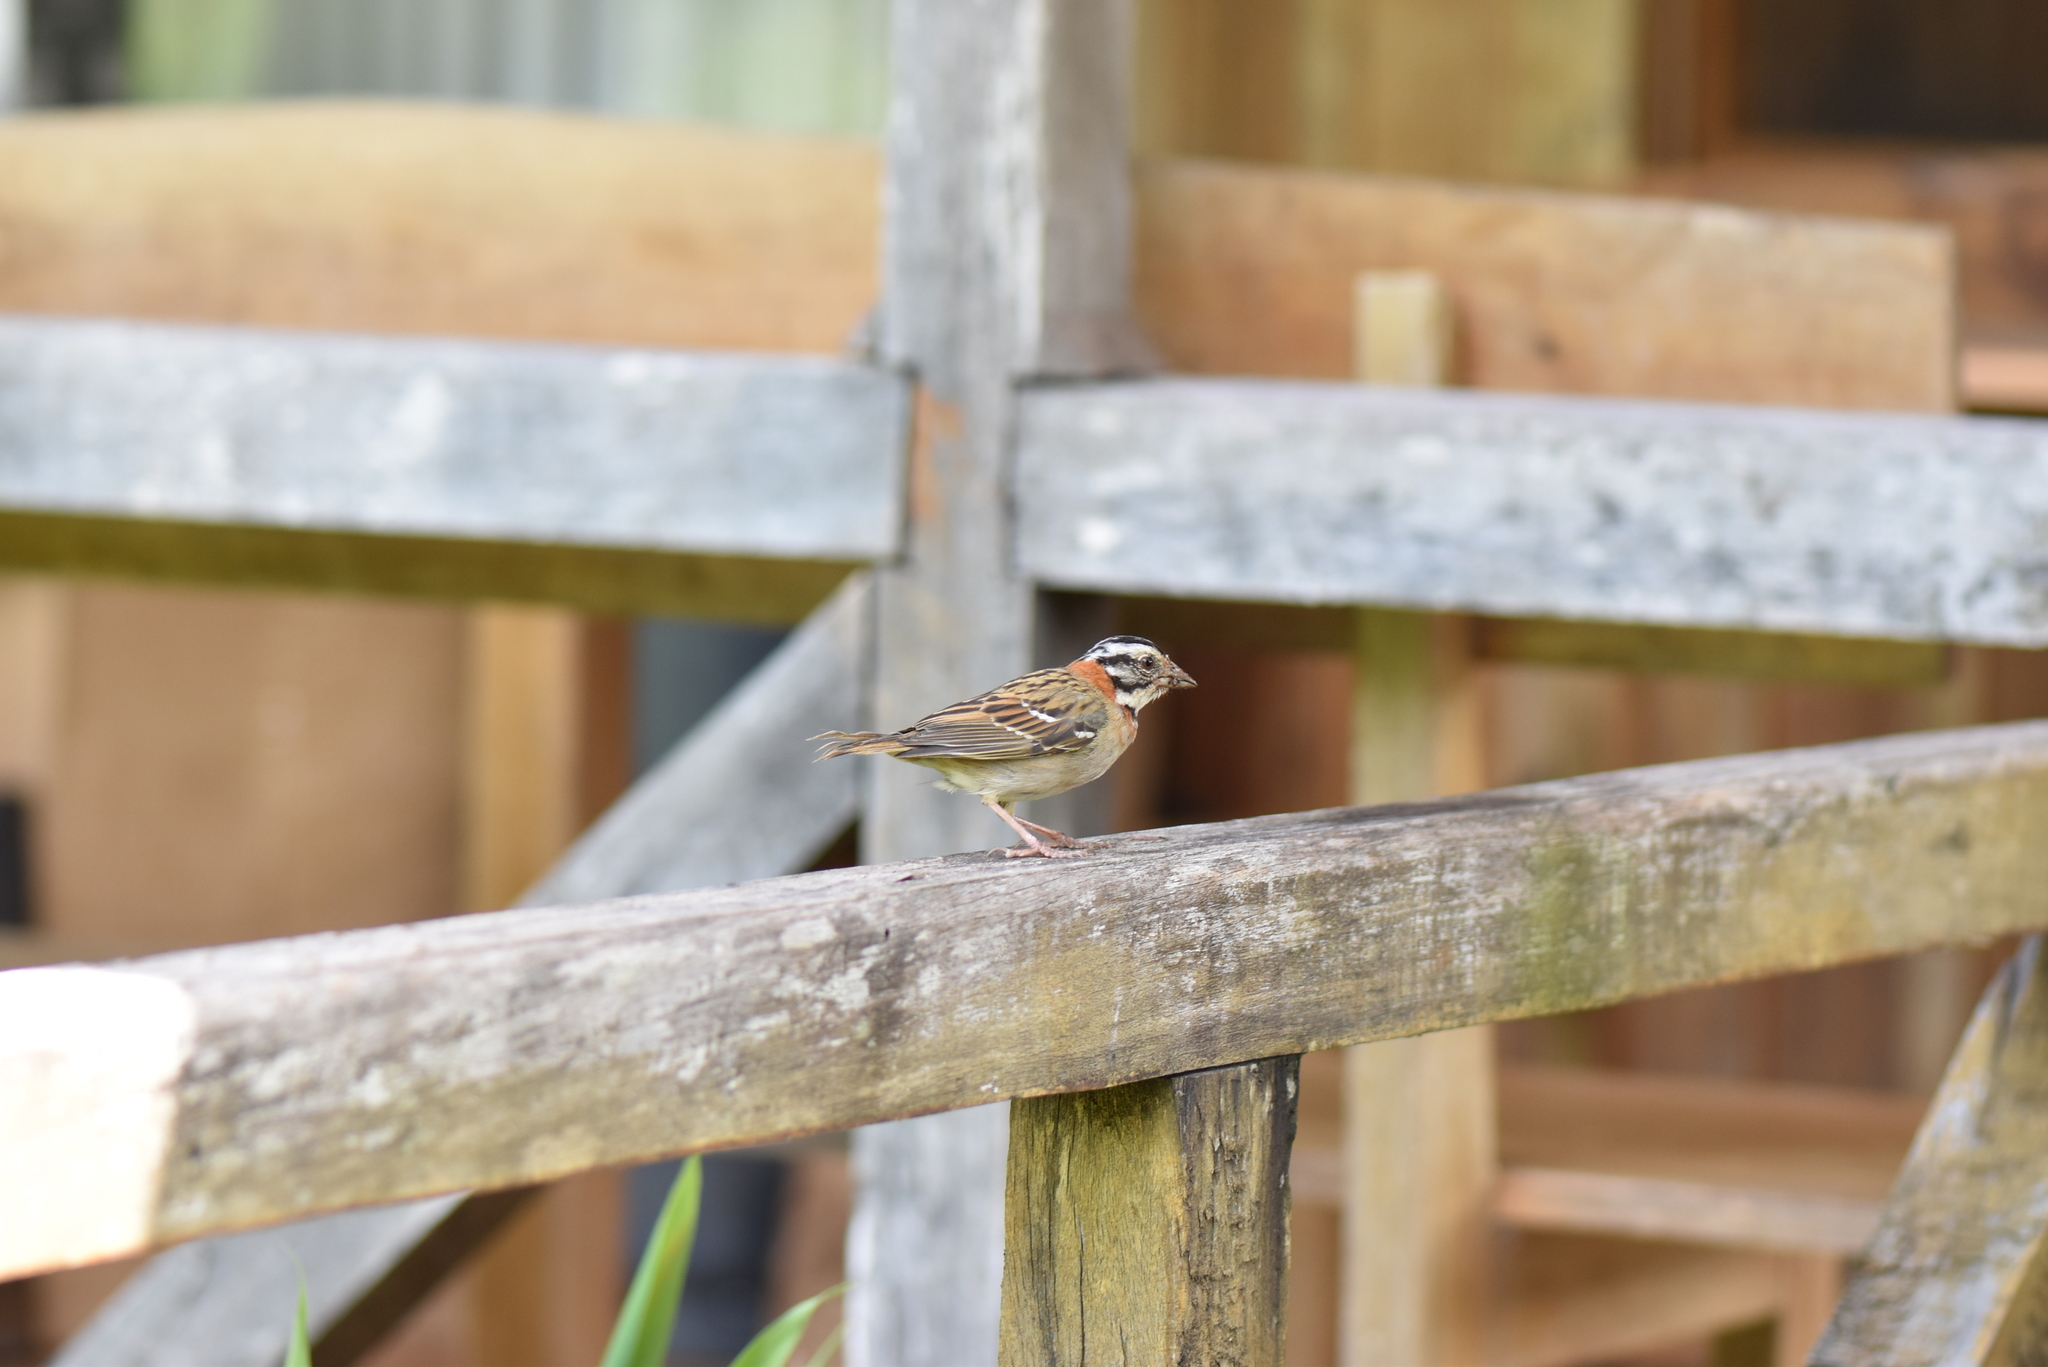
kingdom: Animalia
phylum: Chordata
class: Aves
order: Passeriformes
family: Passerellidae
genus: Zonotrichia
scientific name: Zonotrichia capensis
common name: Rufous-collared sparrow
